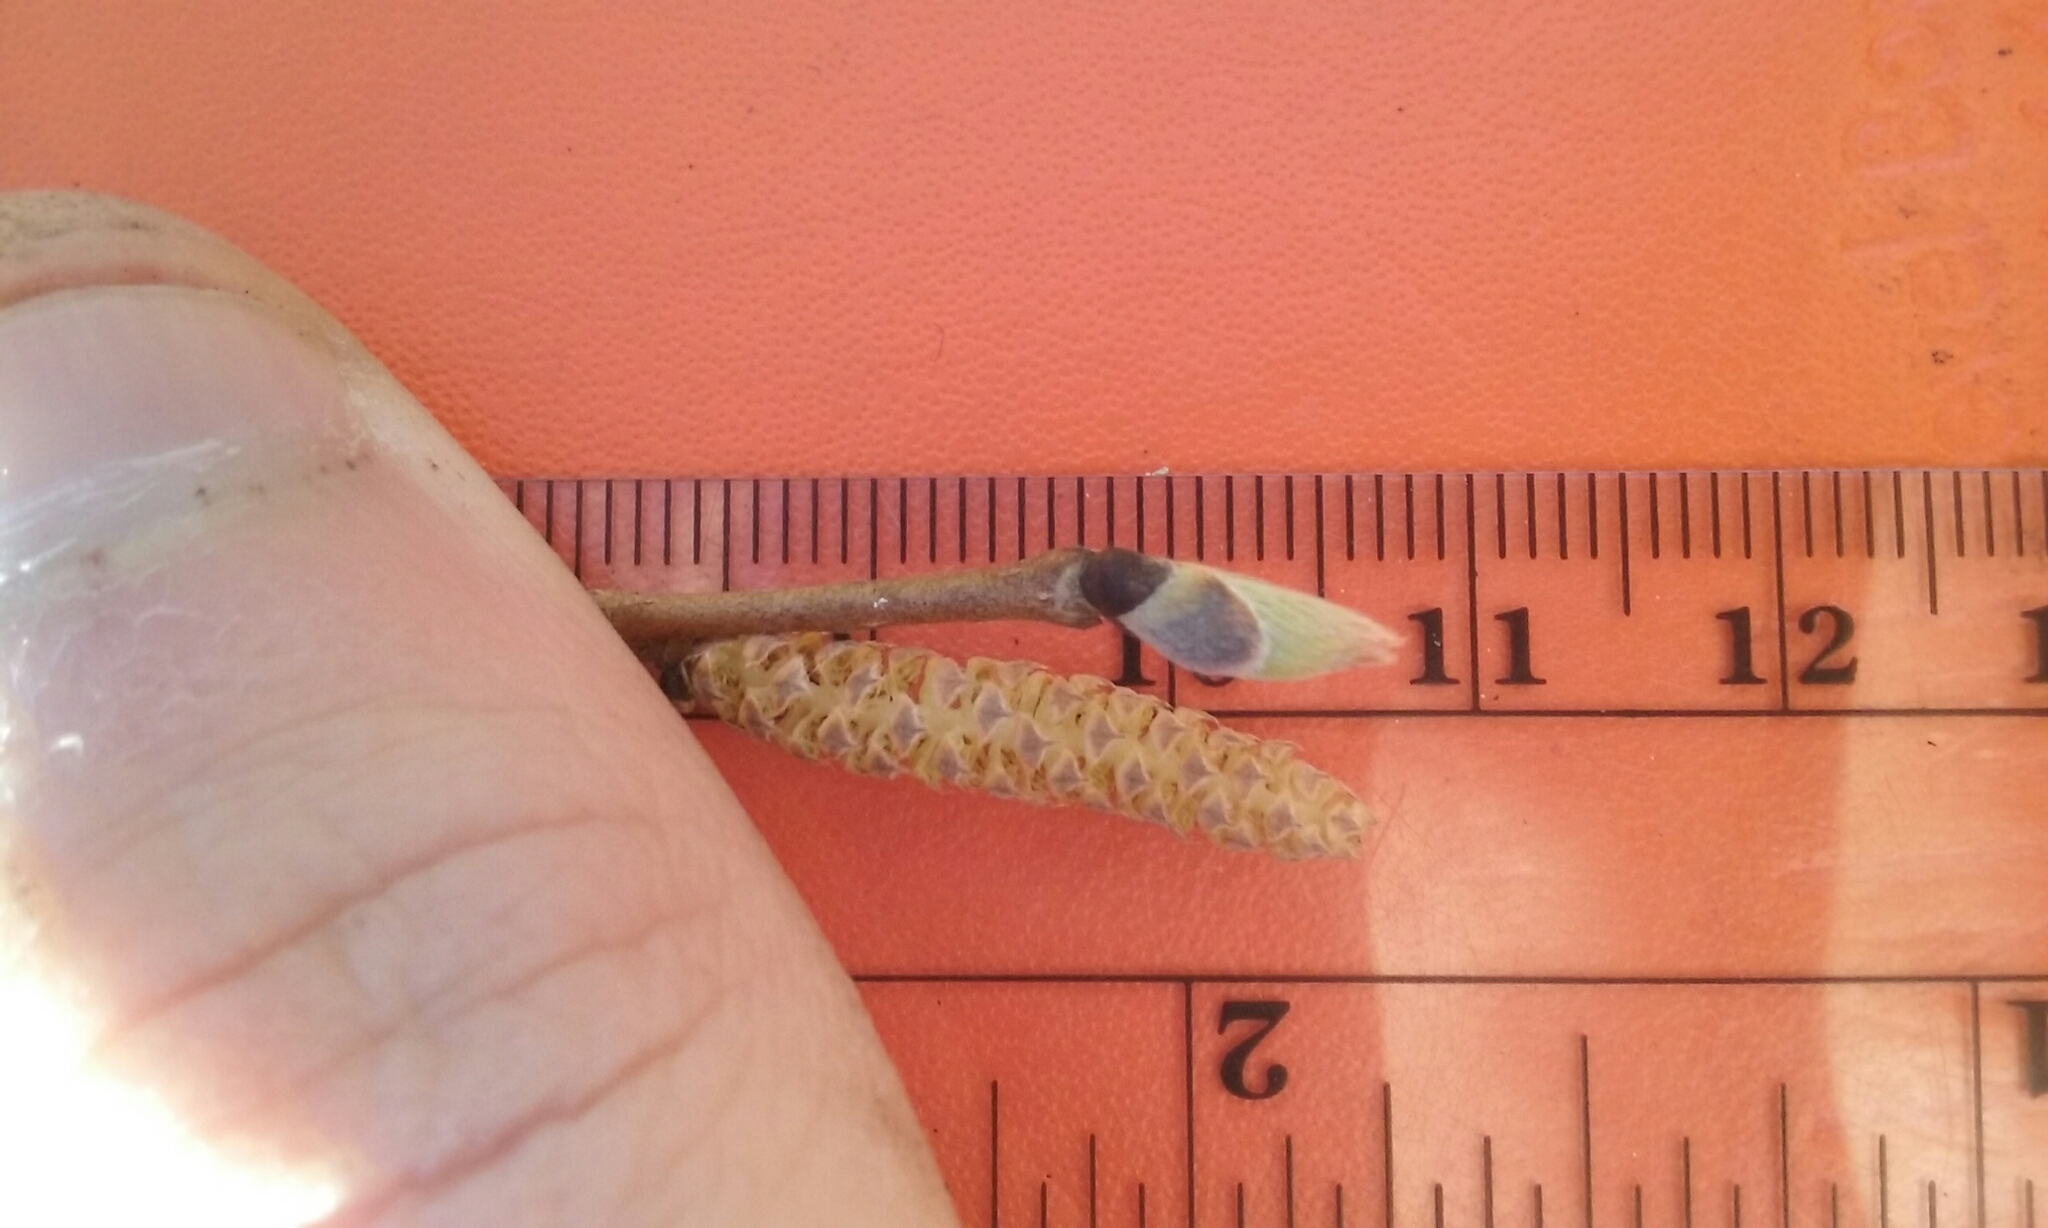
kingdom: Plantae
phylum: Tracheophyta
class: Magnoliopsida
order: Fagales
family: Betulaceae
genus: Corylus
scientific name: Corylus cornuta
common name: Beaked hazel
